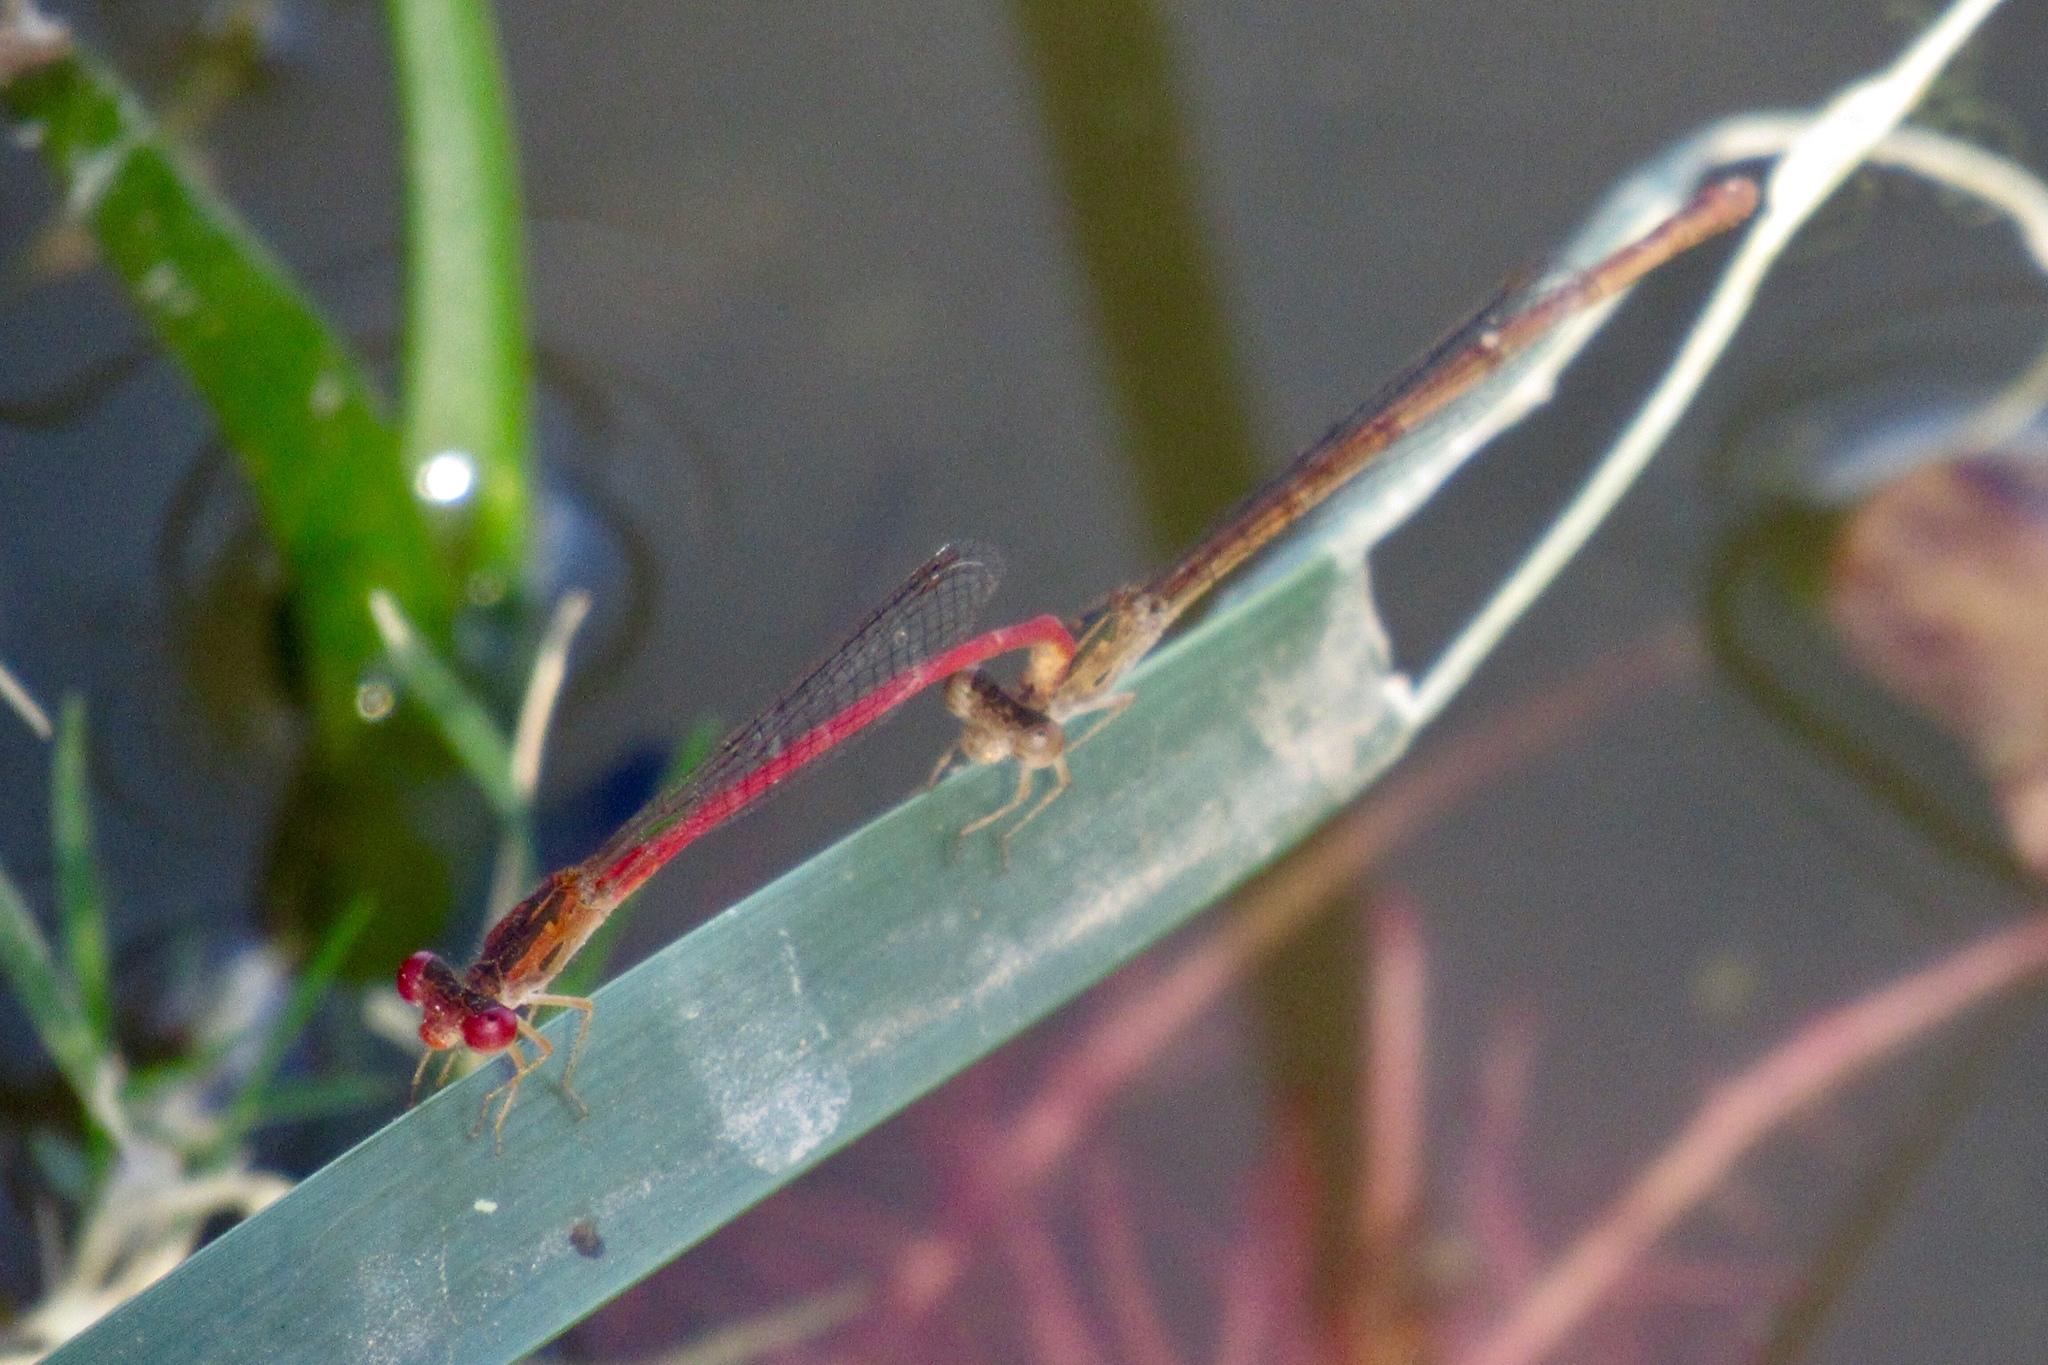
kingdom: Animalia
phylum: Arthropoda
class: Insecta
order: Odonata
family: Coenagrionidae
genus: Telebasis
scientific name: Telebasis salva
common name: Desert firetail
